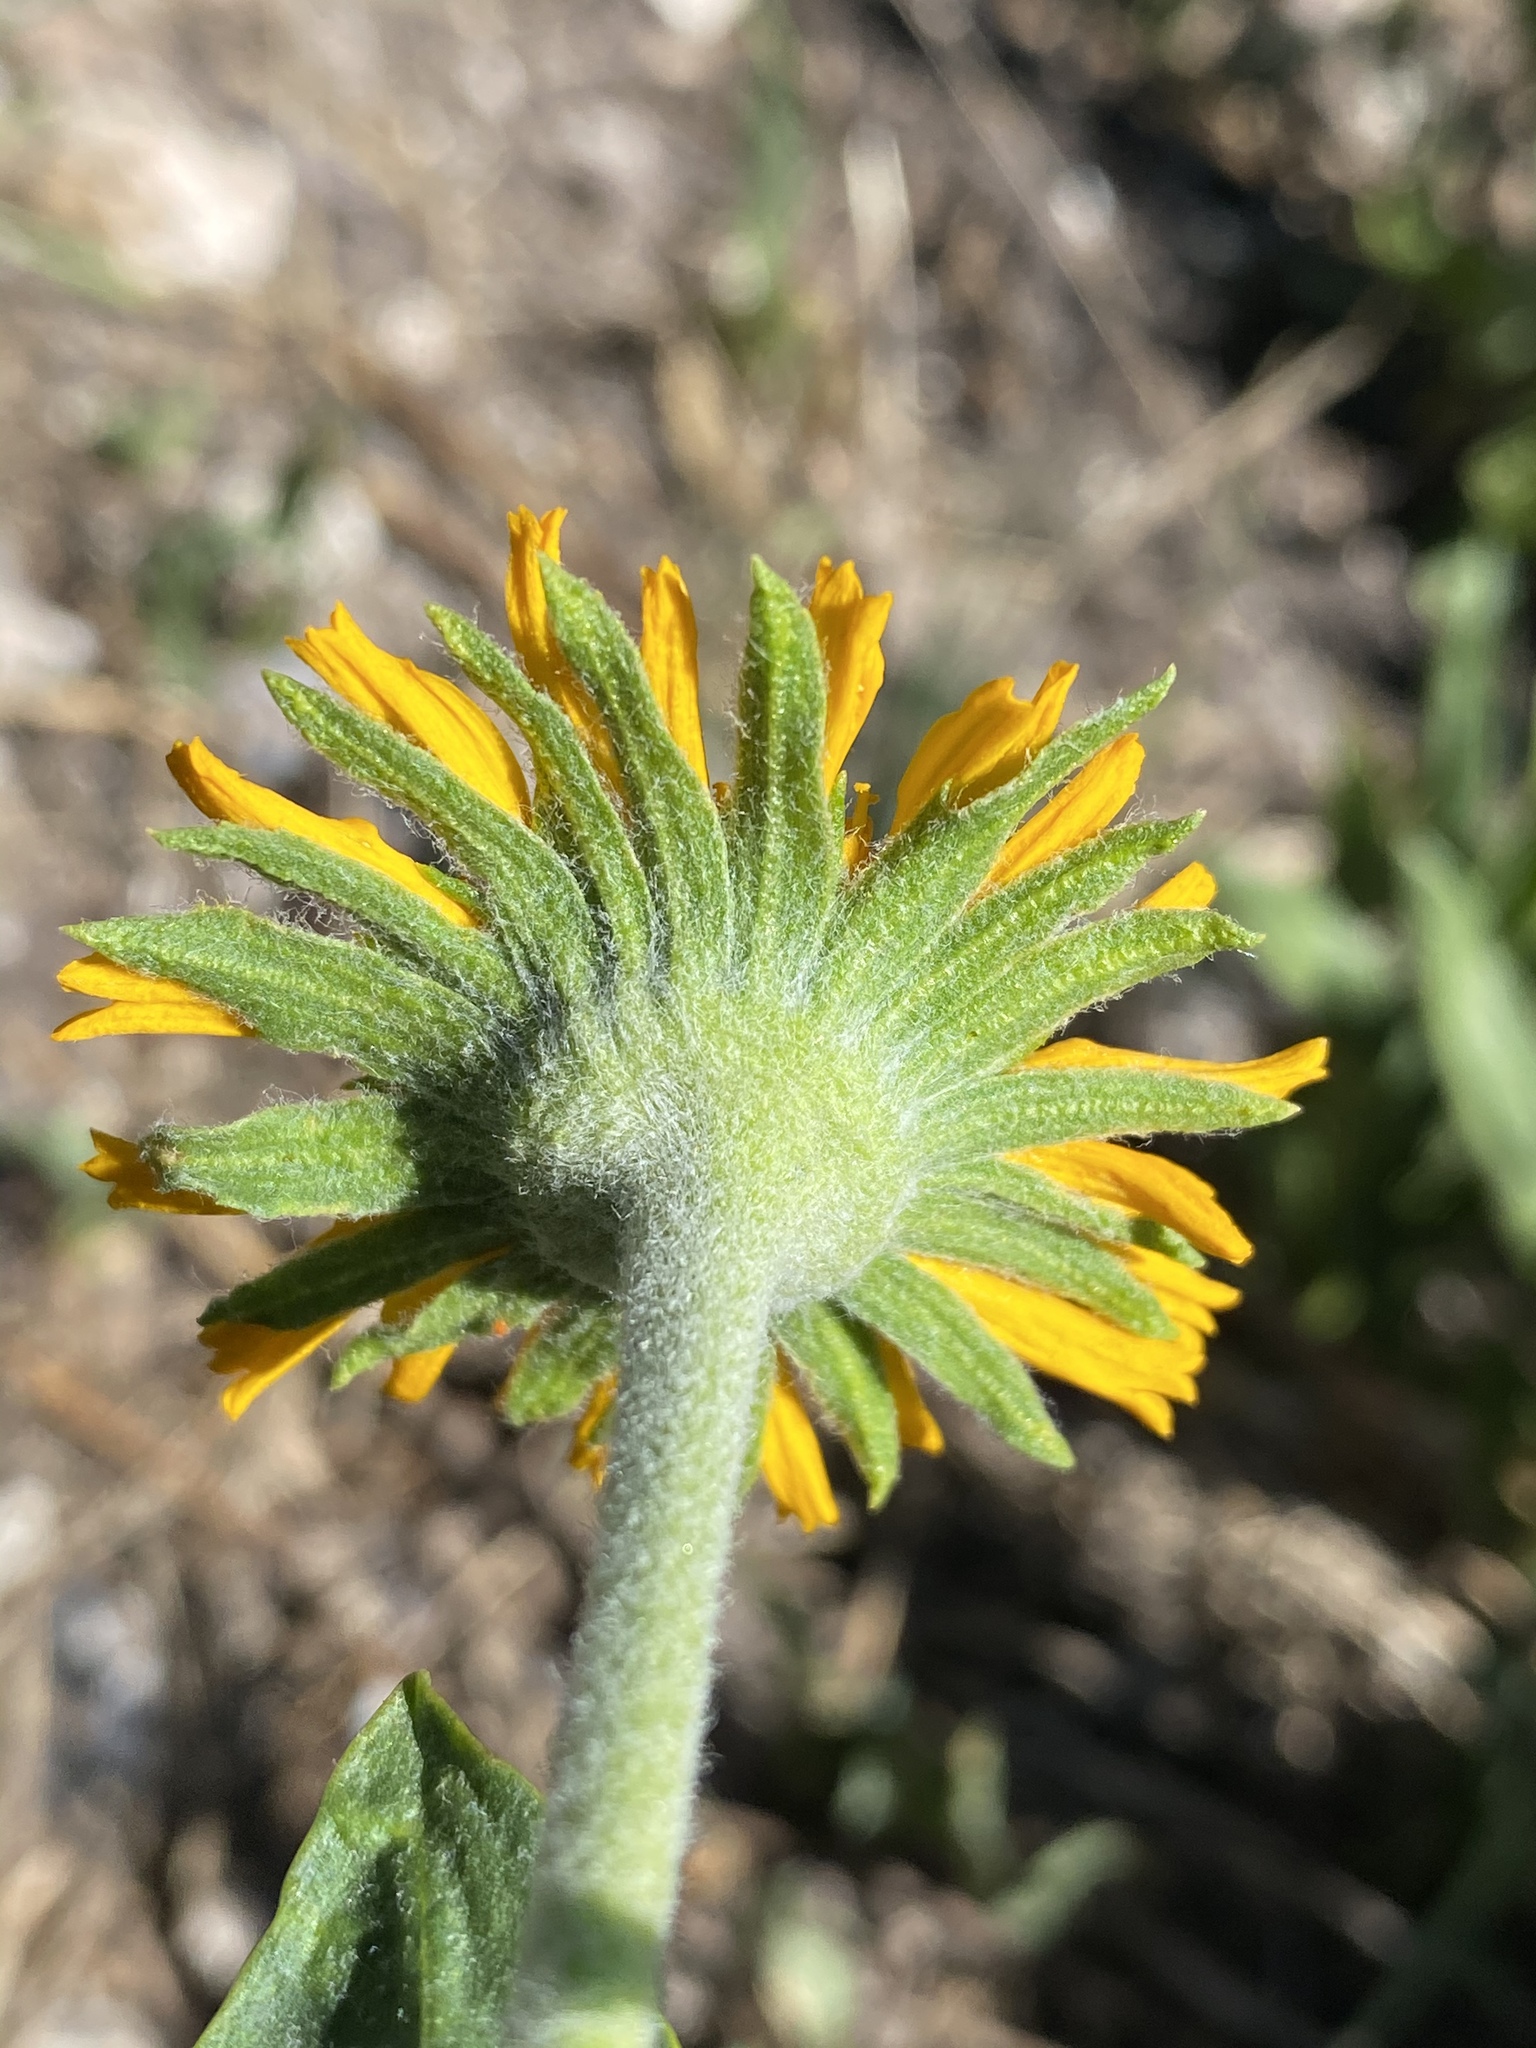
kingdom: Plantae
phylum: Tracheophyta
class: Magnoliopsida
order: Asterales
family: Asteraceae
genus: Hymenoxys
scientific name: Hymenoxys hoopesii
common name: Orange-sneezeweed
